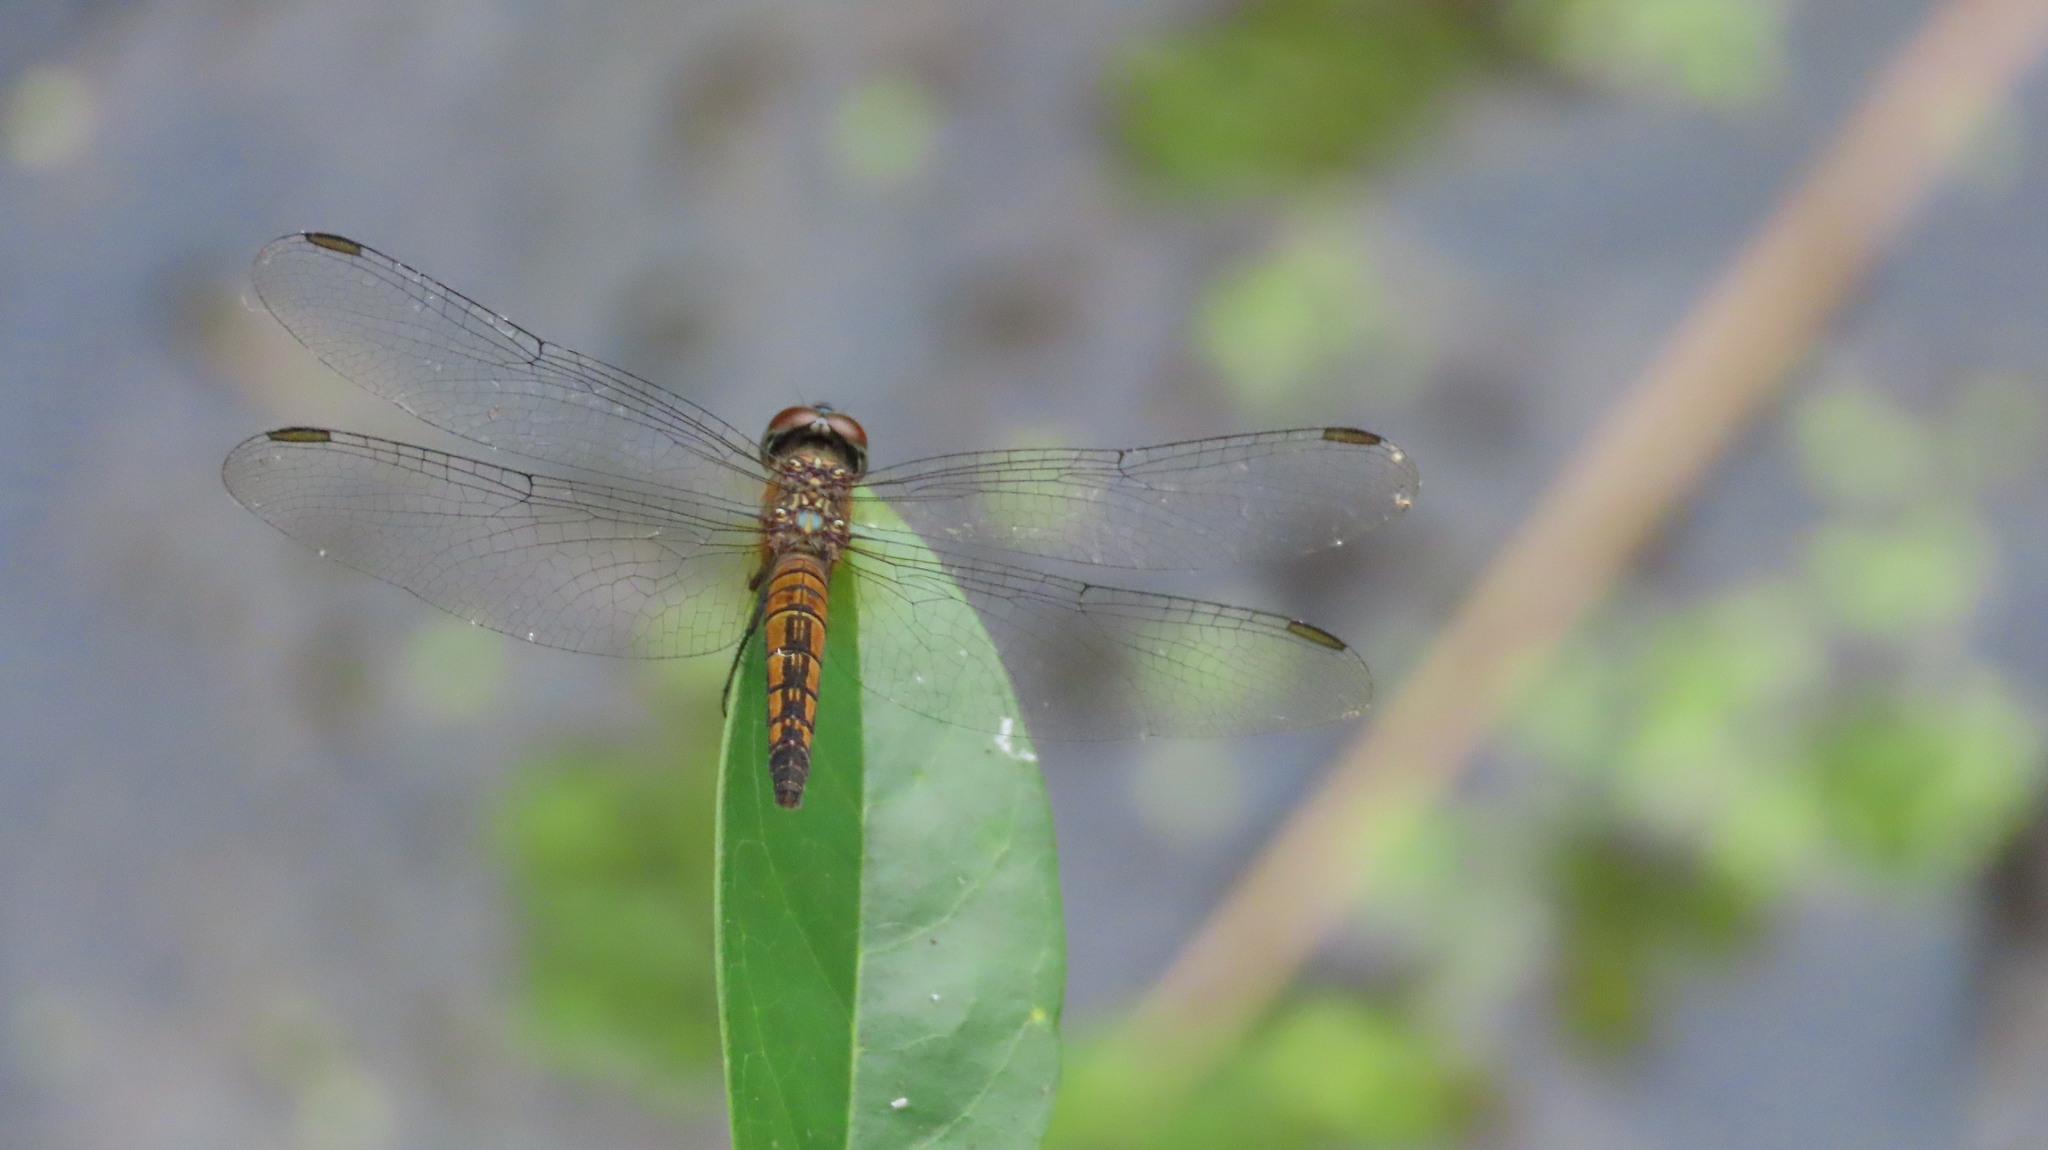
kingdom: Animalia
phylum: Arthropoda
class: Insecta
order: Odonata
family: Libellulidae
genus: Brachydiplax
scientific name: Brachydiplax chalybea
